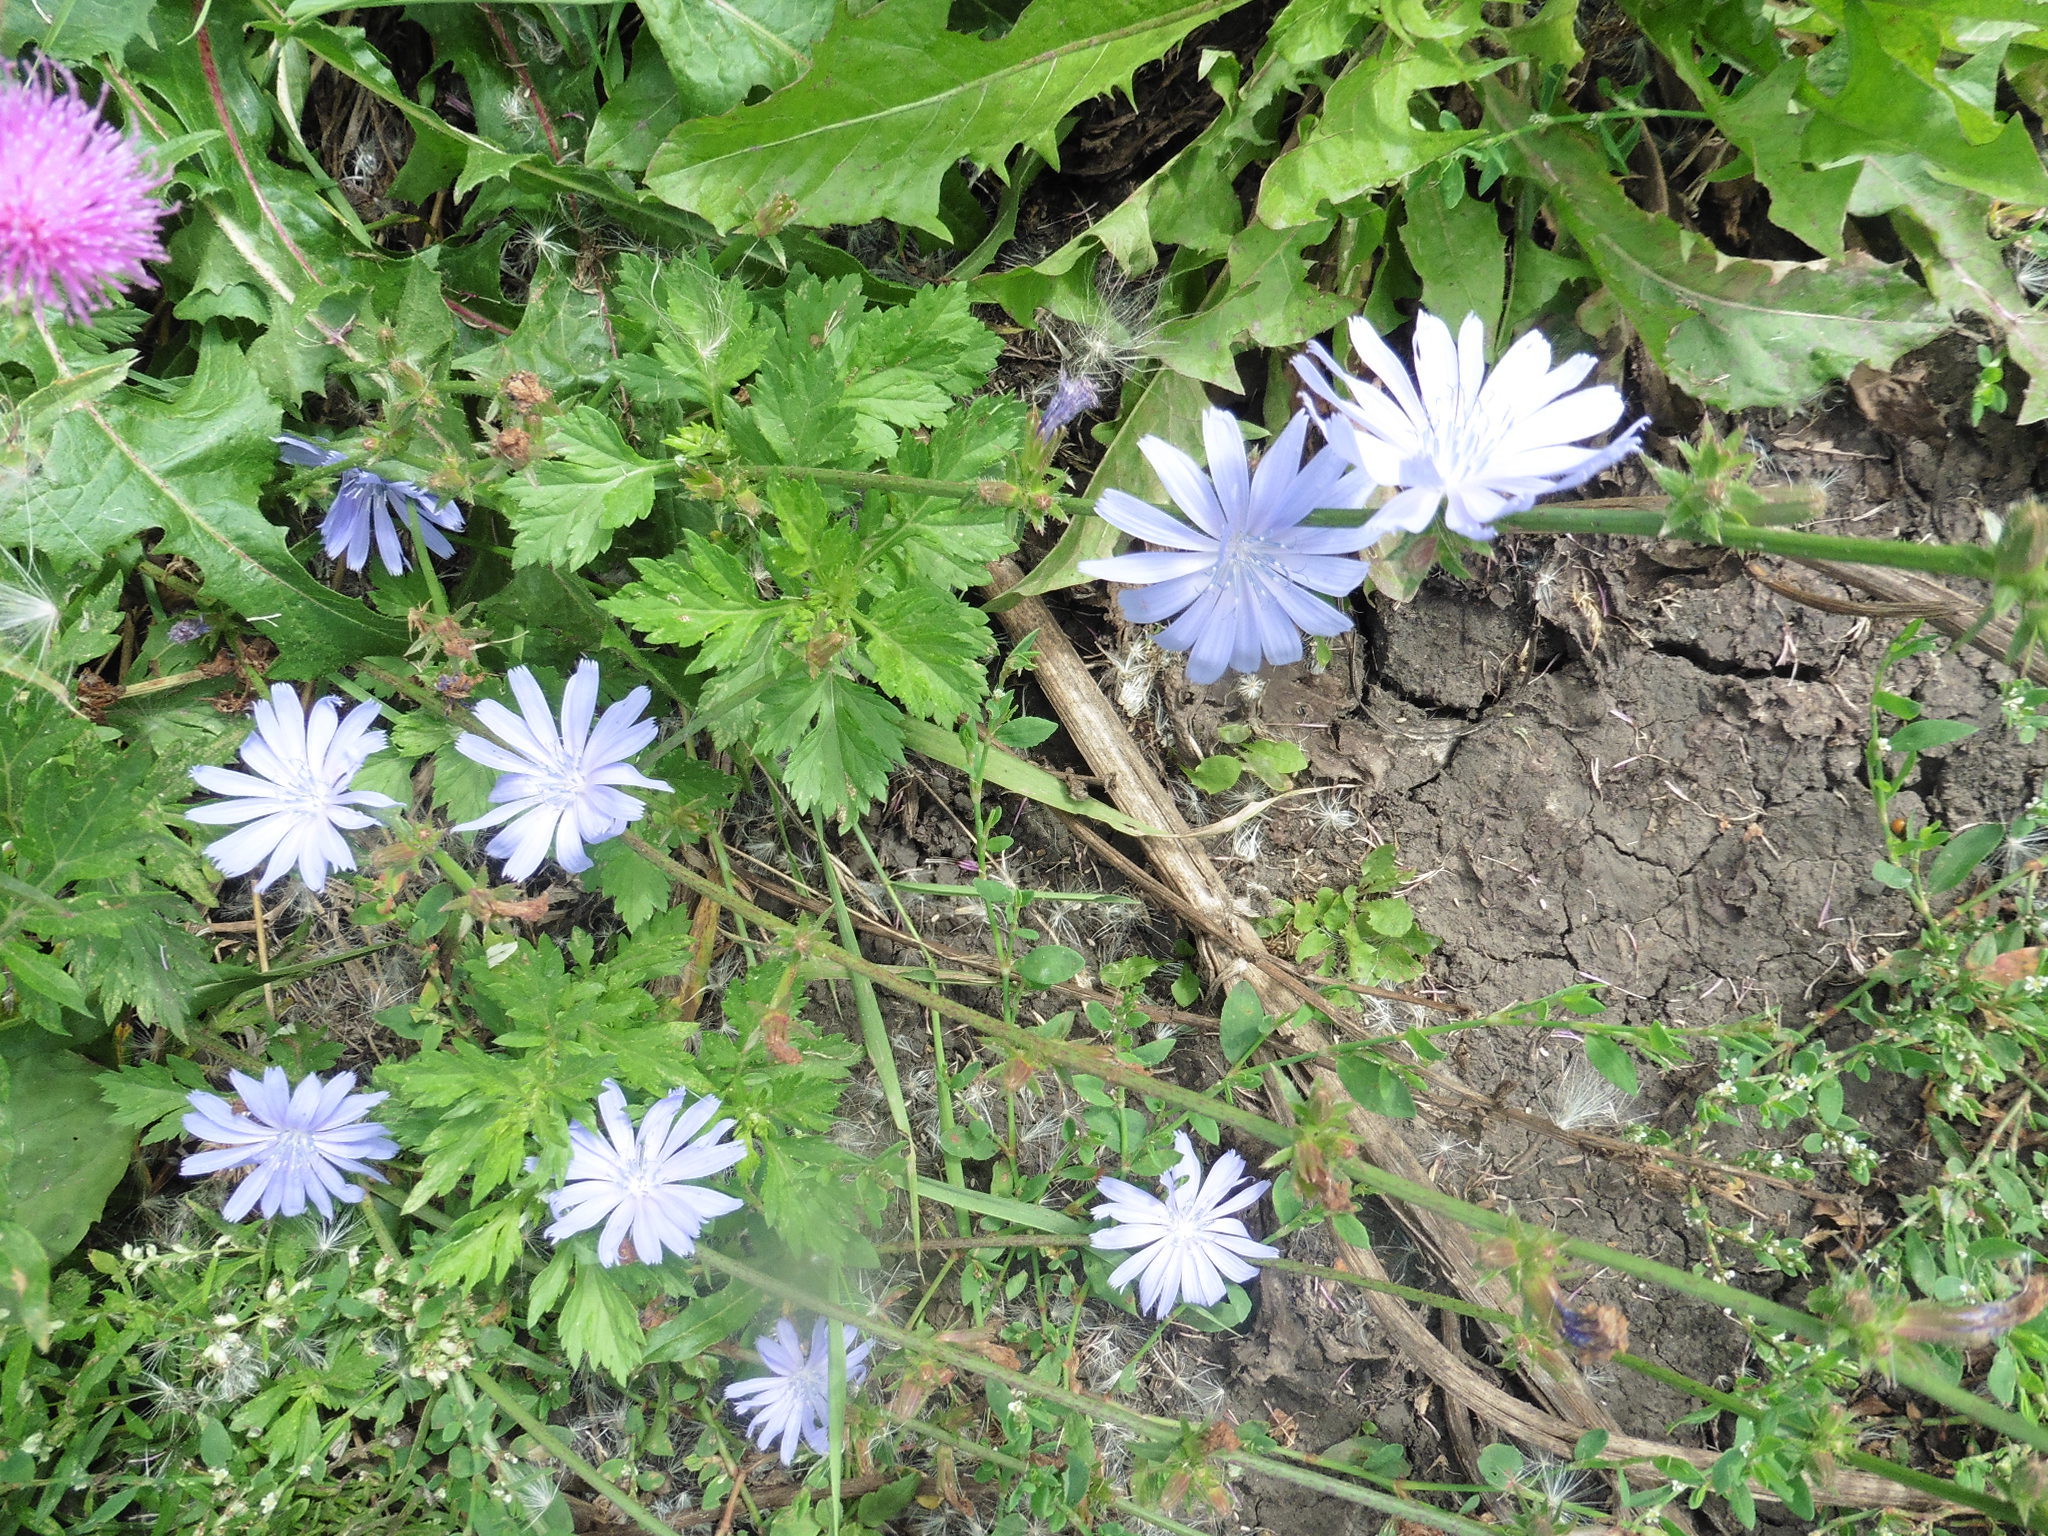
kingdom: Plantae
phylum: Tracheophyta
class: Magnoliopsida
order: Asterales
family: Asteraceae
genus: Cichorium
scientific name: Cichorium intybus
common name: Chicory
